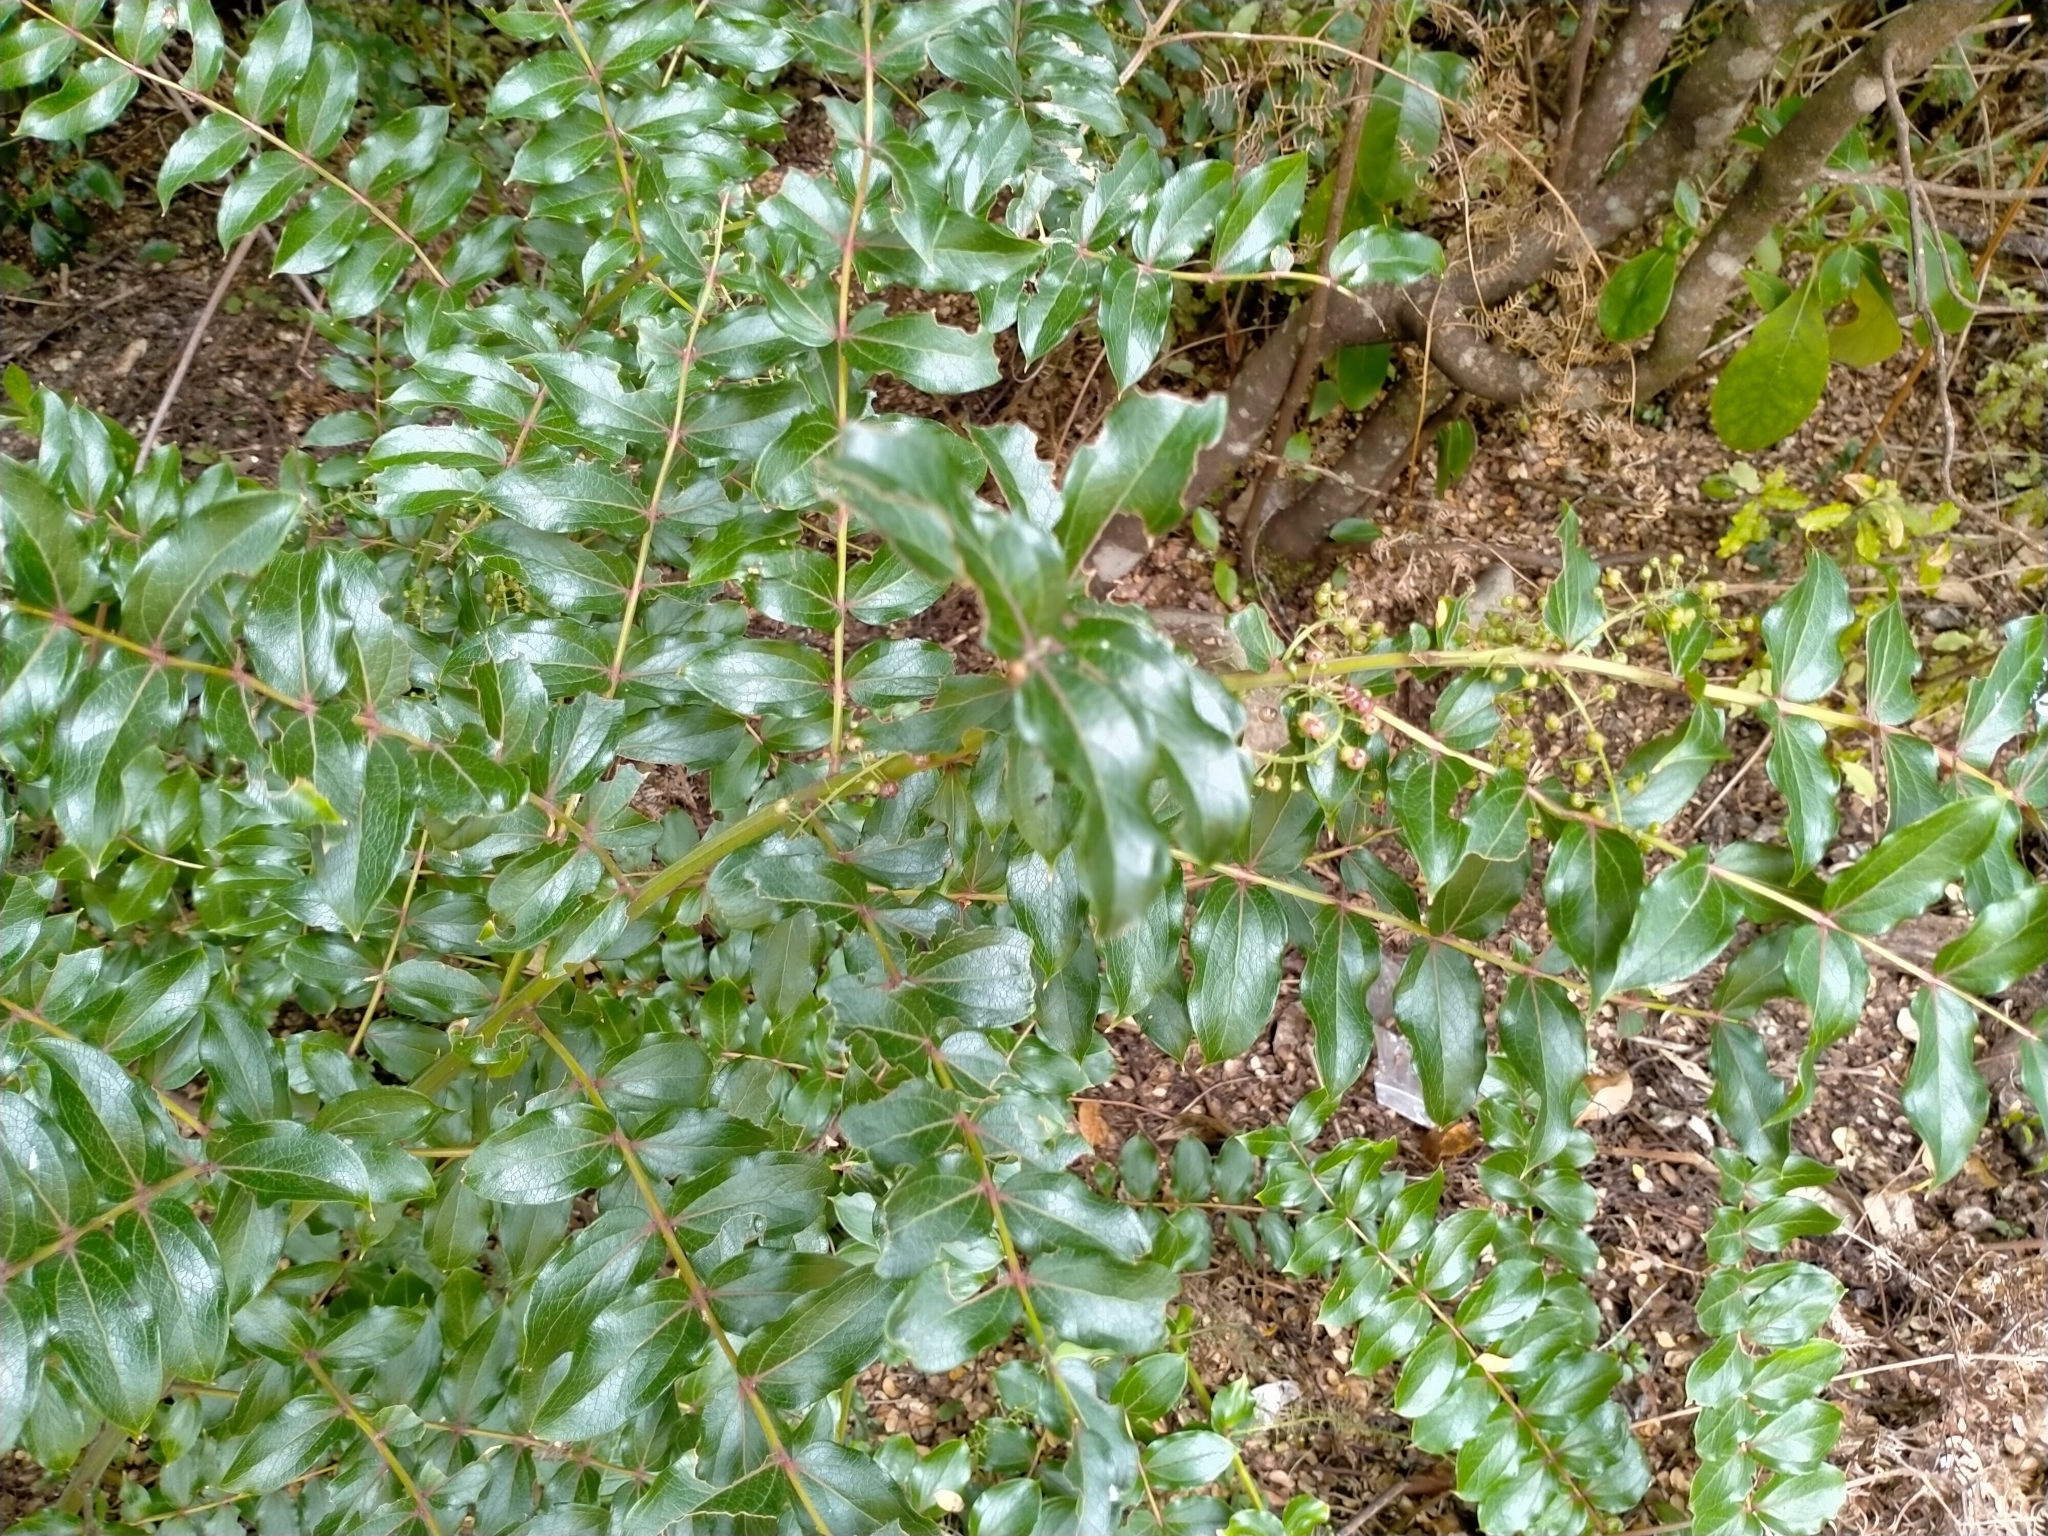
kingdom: Plantae
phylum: Tracheophyta
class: Magnoliopsida
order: Cucurbitales
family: Coriariaceae
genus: Coriaria
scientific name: Coriaria sarmentosa
